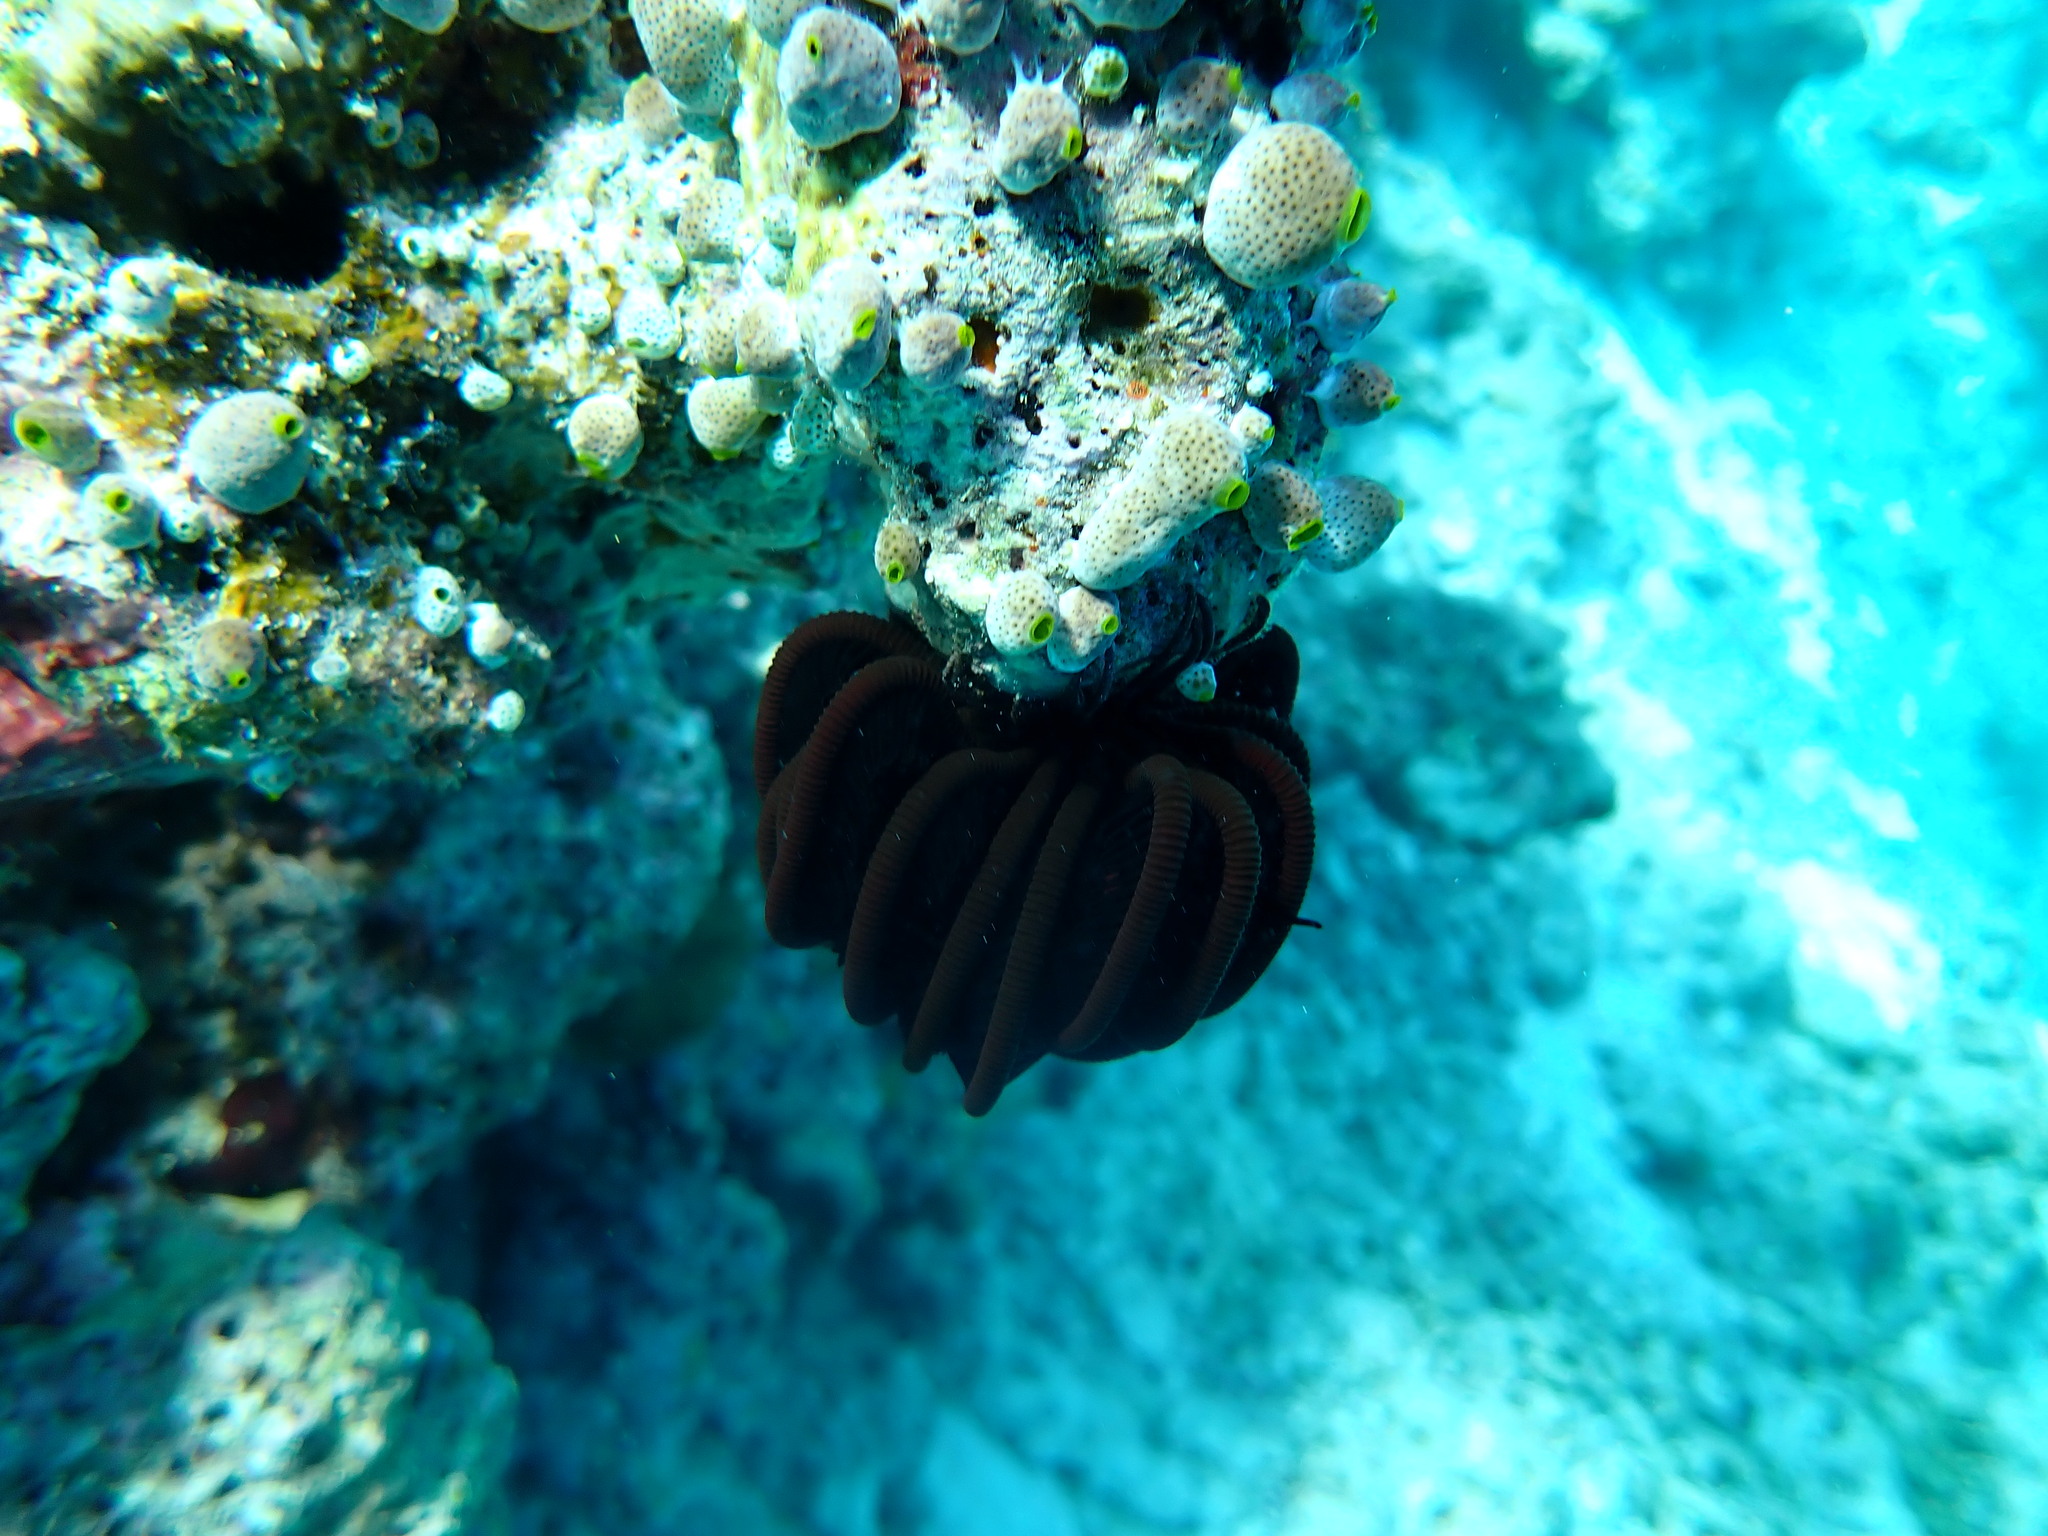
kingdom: Animalia
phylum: Echinodermata
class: Crinoidea
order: Comatulida
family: Comatulidae
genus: Capillaster
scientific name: Capillaster multiradiatus
